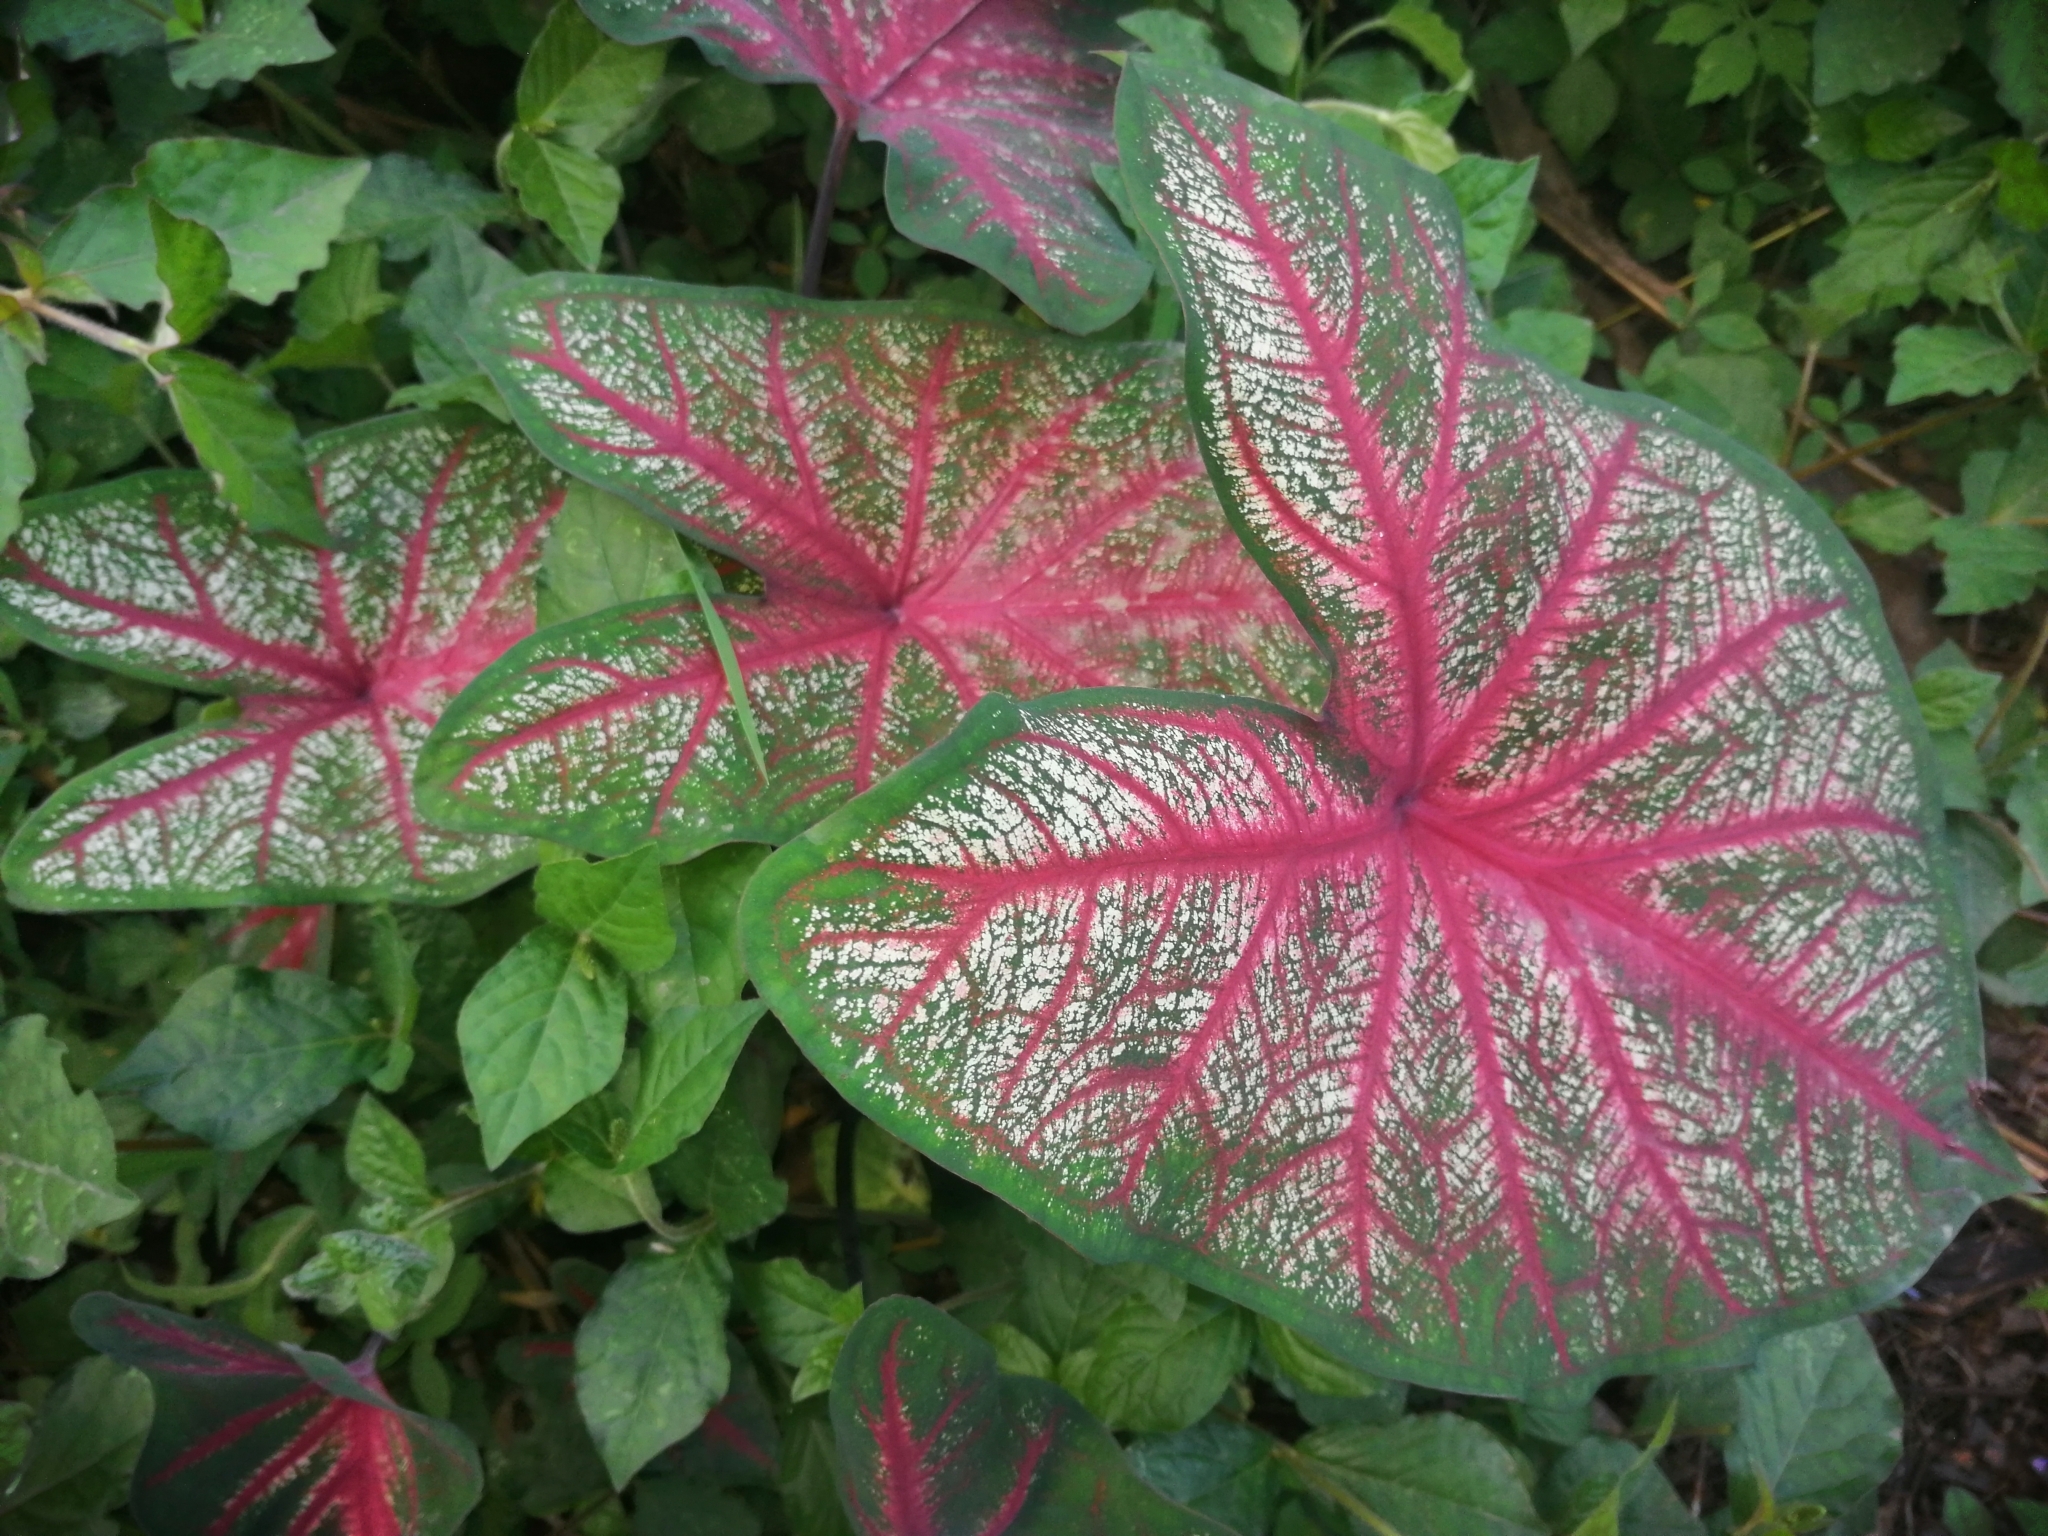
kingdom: Plantae
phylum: Tracheophyta
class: Liliopsida
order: Alismatales
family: Araceae
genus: Caladium
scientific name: Caladium bicolor
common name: Artist's pallet
